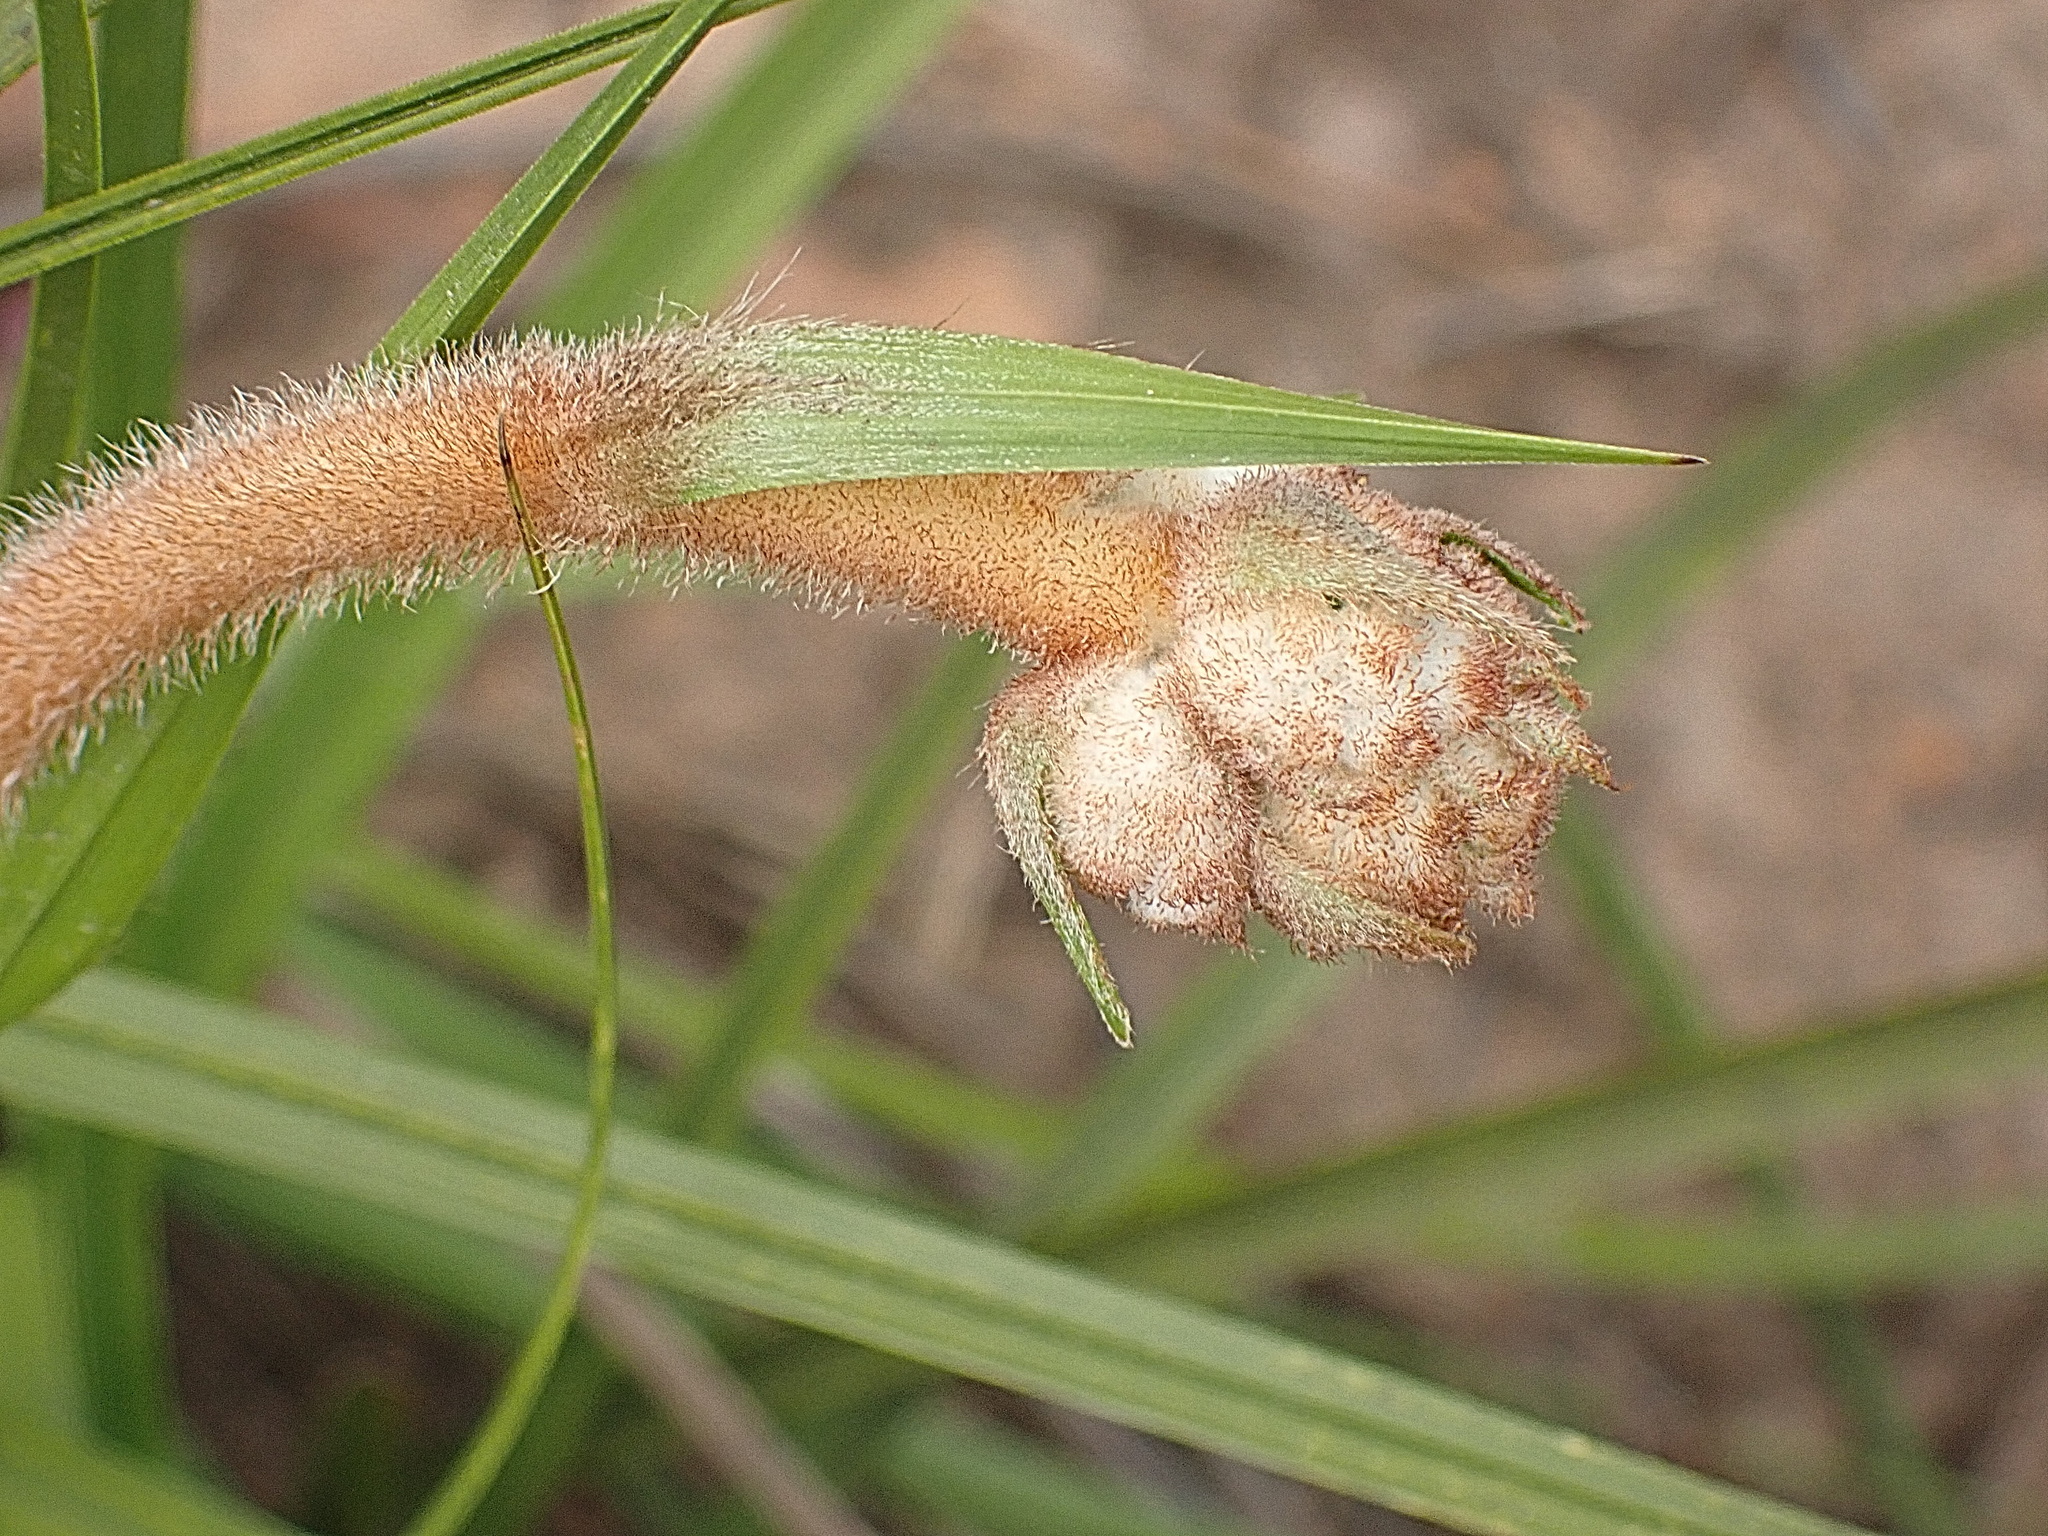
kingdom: Plantae
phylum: Tracheophyta
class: Liliopsida
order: Asparagales
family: Lanariaceae
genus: Lanaria
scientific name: Lanaria lanata
